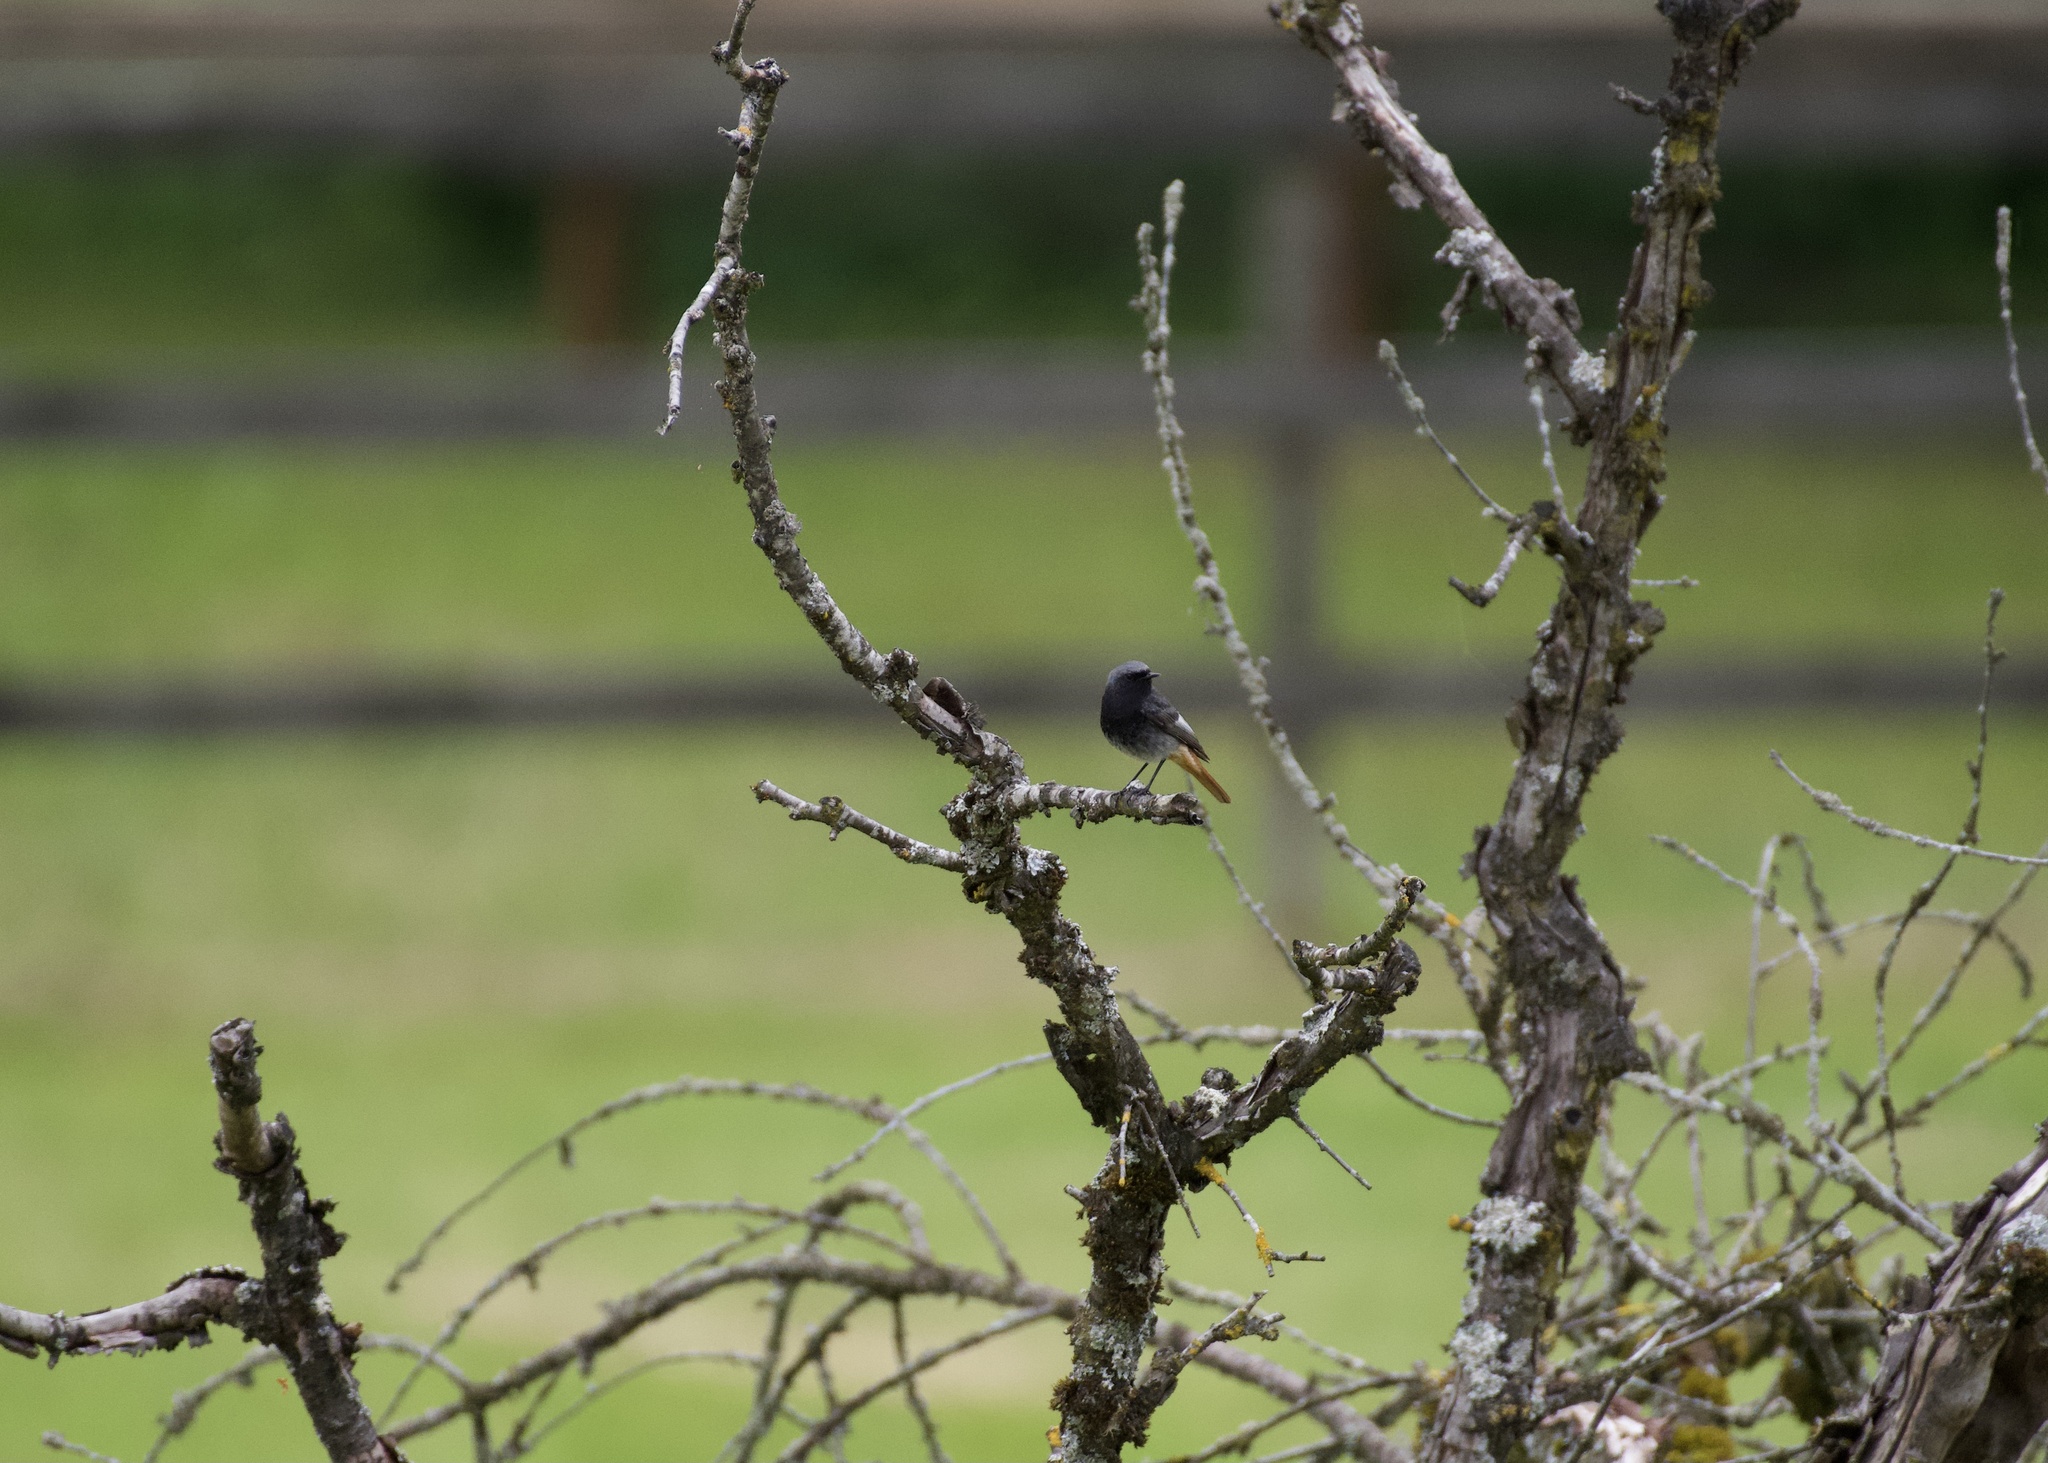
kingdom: Animalia
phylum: Chordata
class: Aves
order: Passeriformes
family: Muscicapidae
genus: Phoenicurus
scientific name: Phoenicurus ochruros
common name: Black redstart
